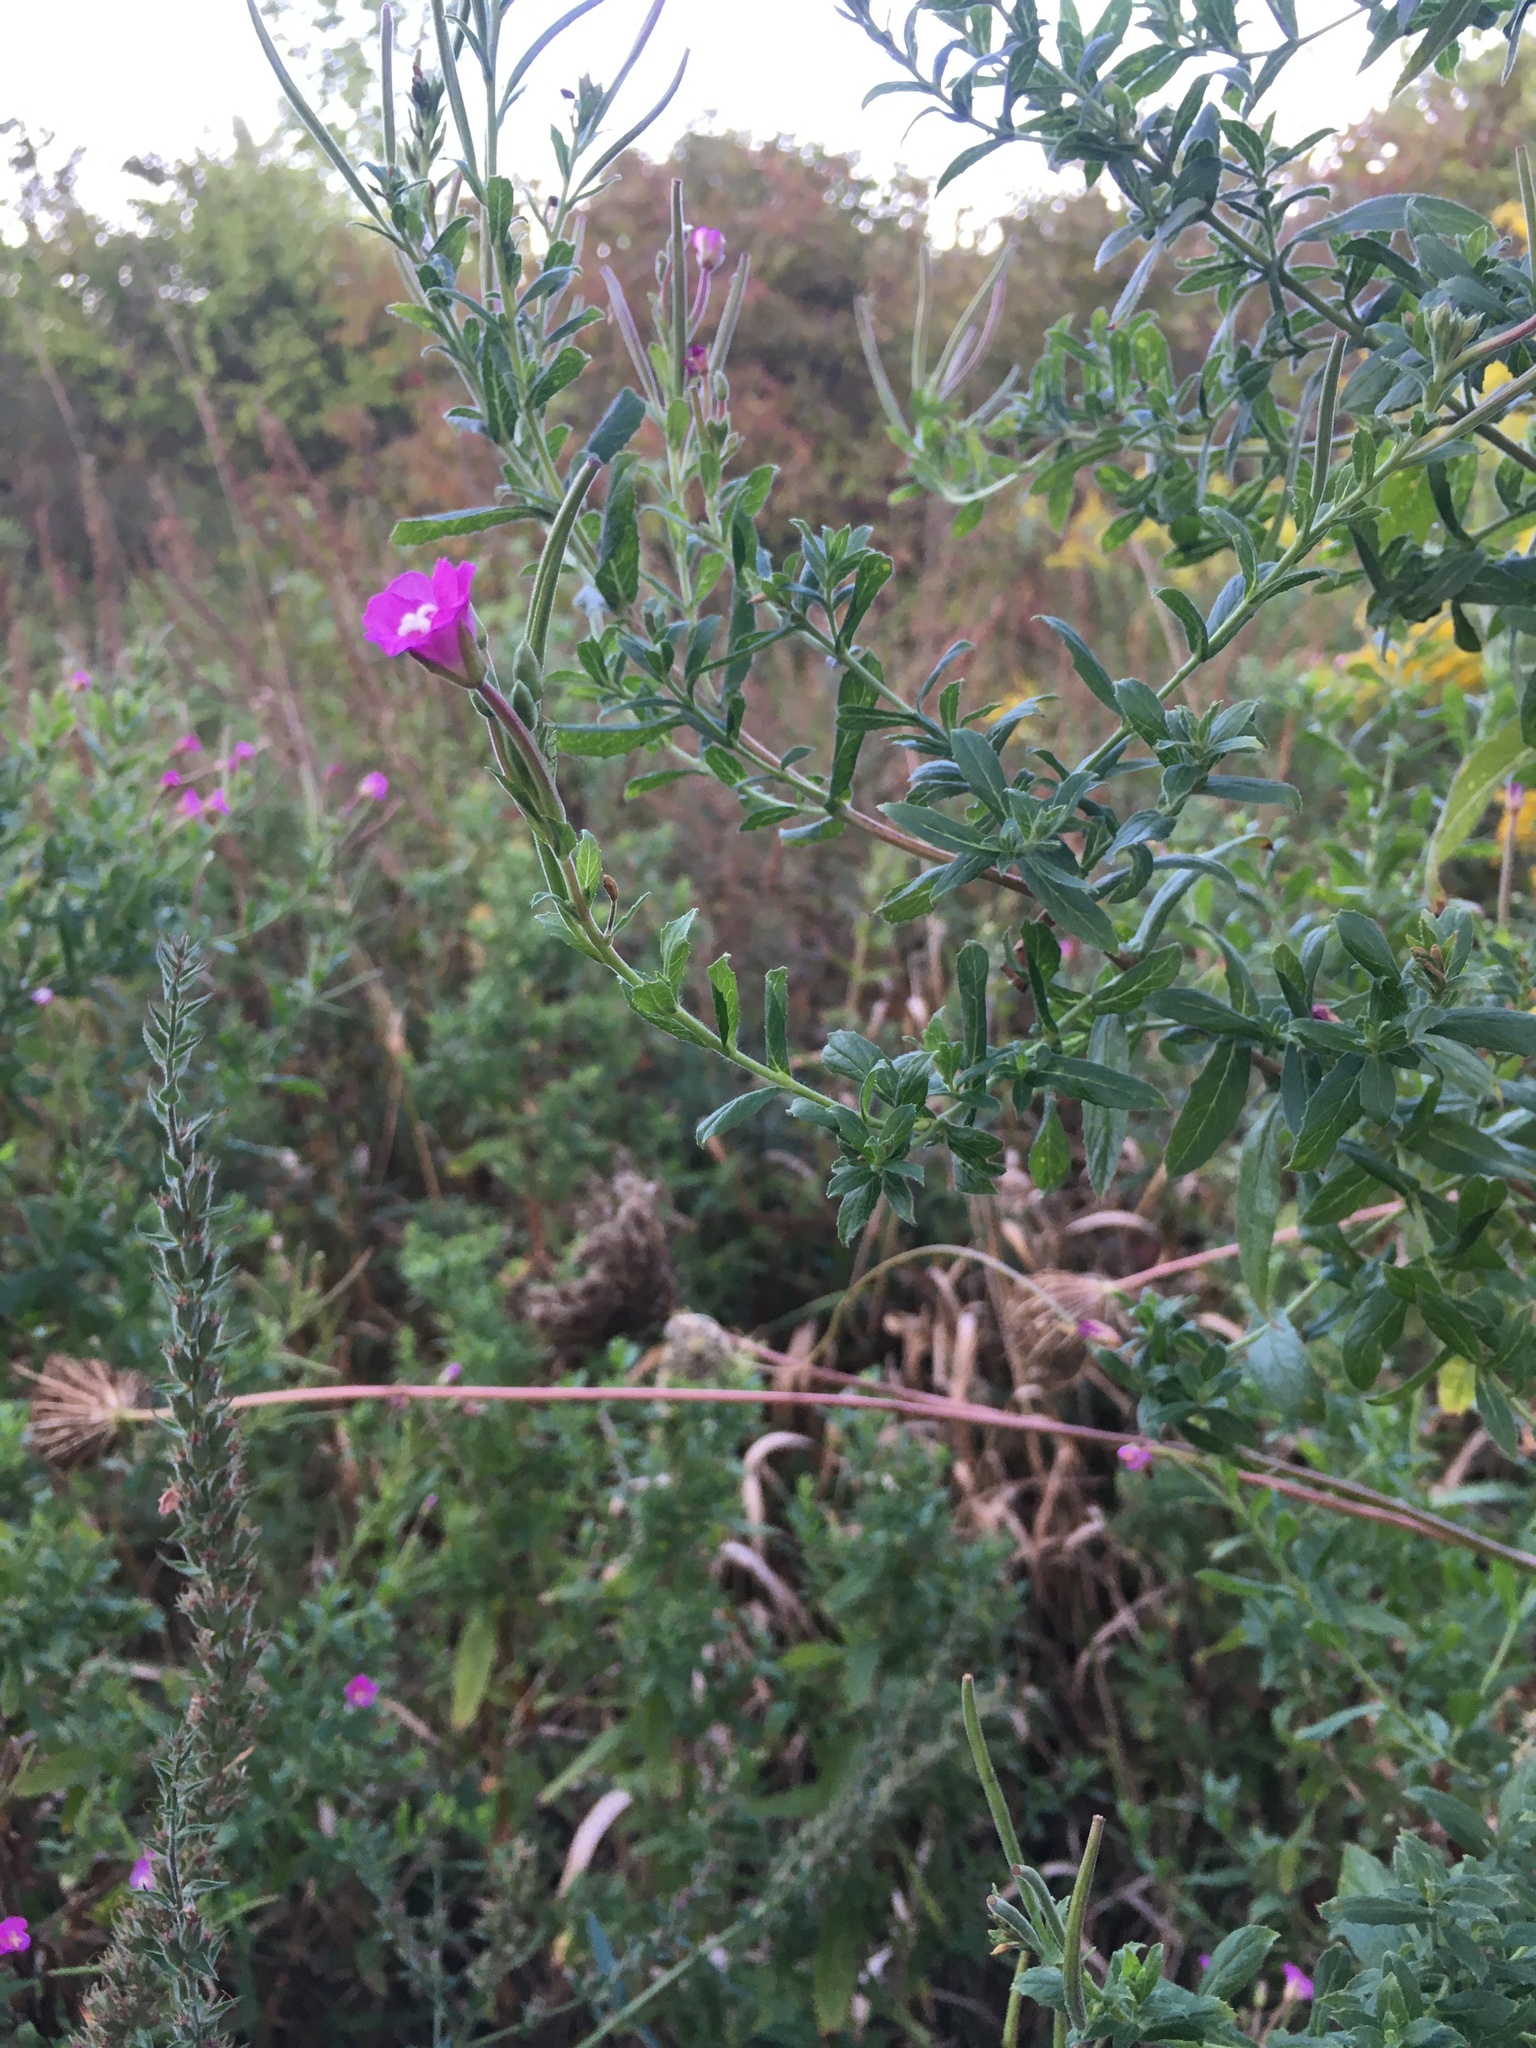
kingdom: Plantae
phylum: Tracheophyta
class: Magnoliopsida
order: Myrtales
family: Onagraceae
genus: Epilobium
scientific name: Epilobium hirsutum
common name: Great willowherb
